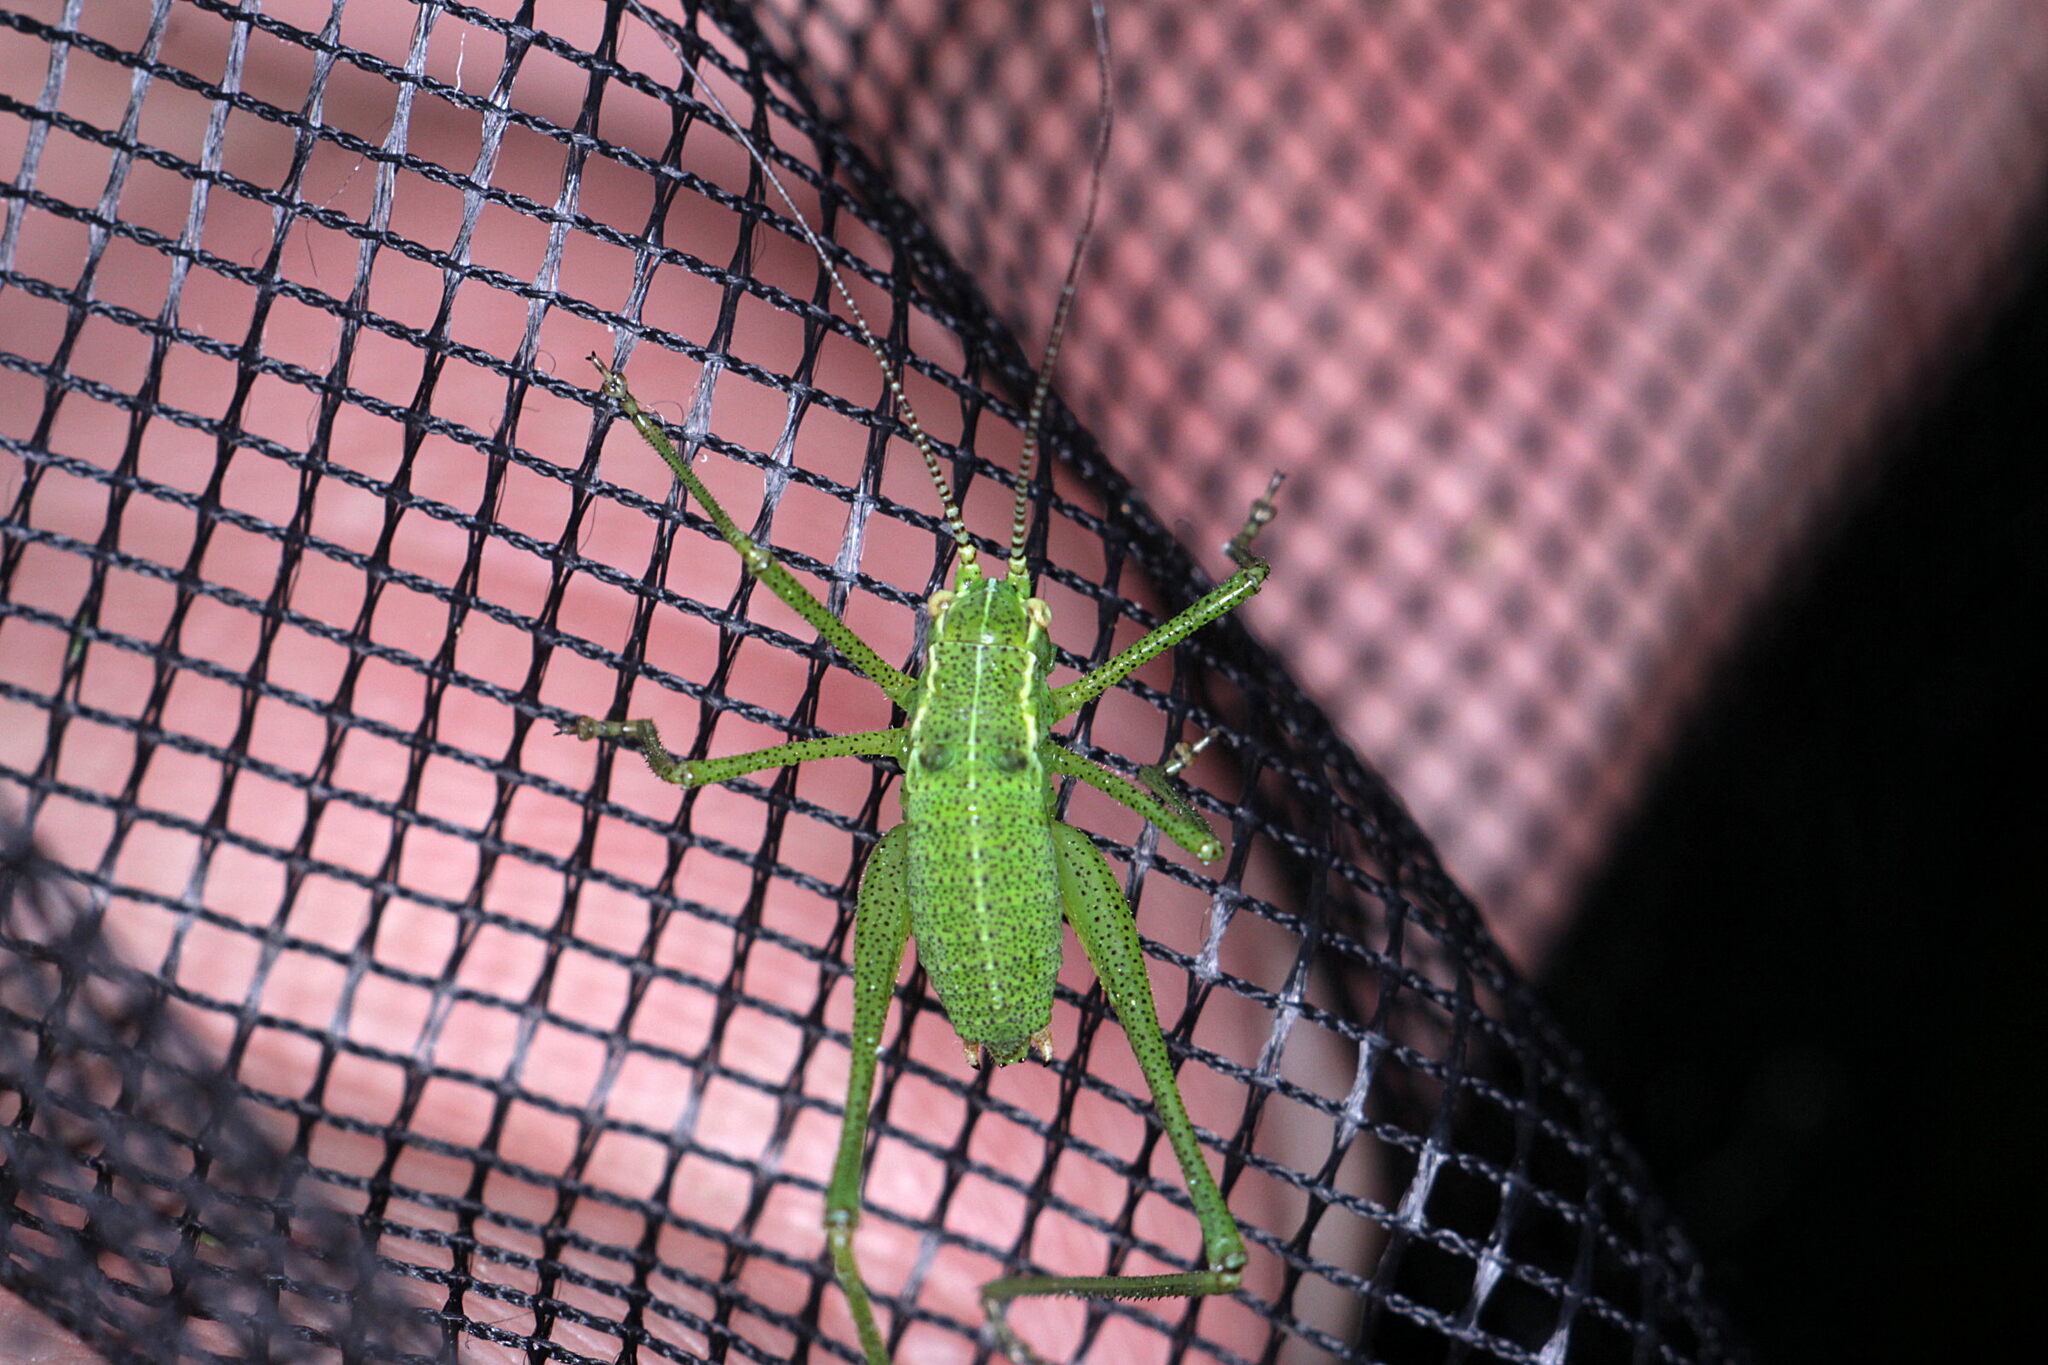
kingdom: Animalia
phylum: Arthropoda
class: Insecta
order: Orthoptera
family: Tettigoniidae
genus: Leptophyes
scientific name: Leptophyes punctatissima
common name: Speckled bush-cricket
